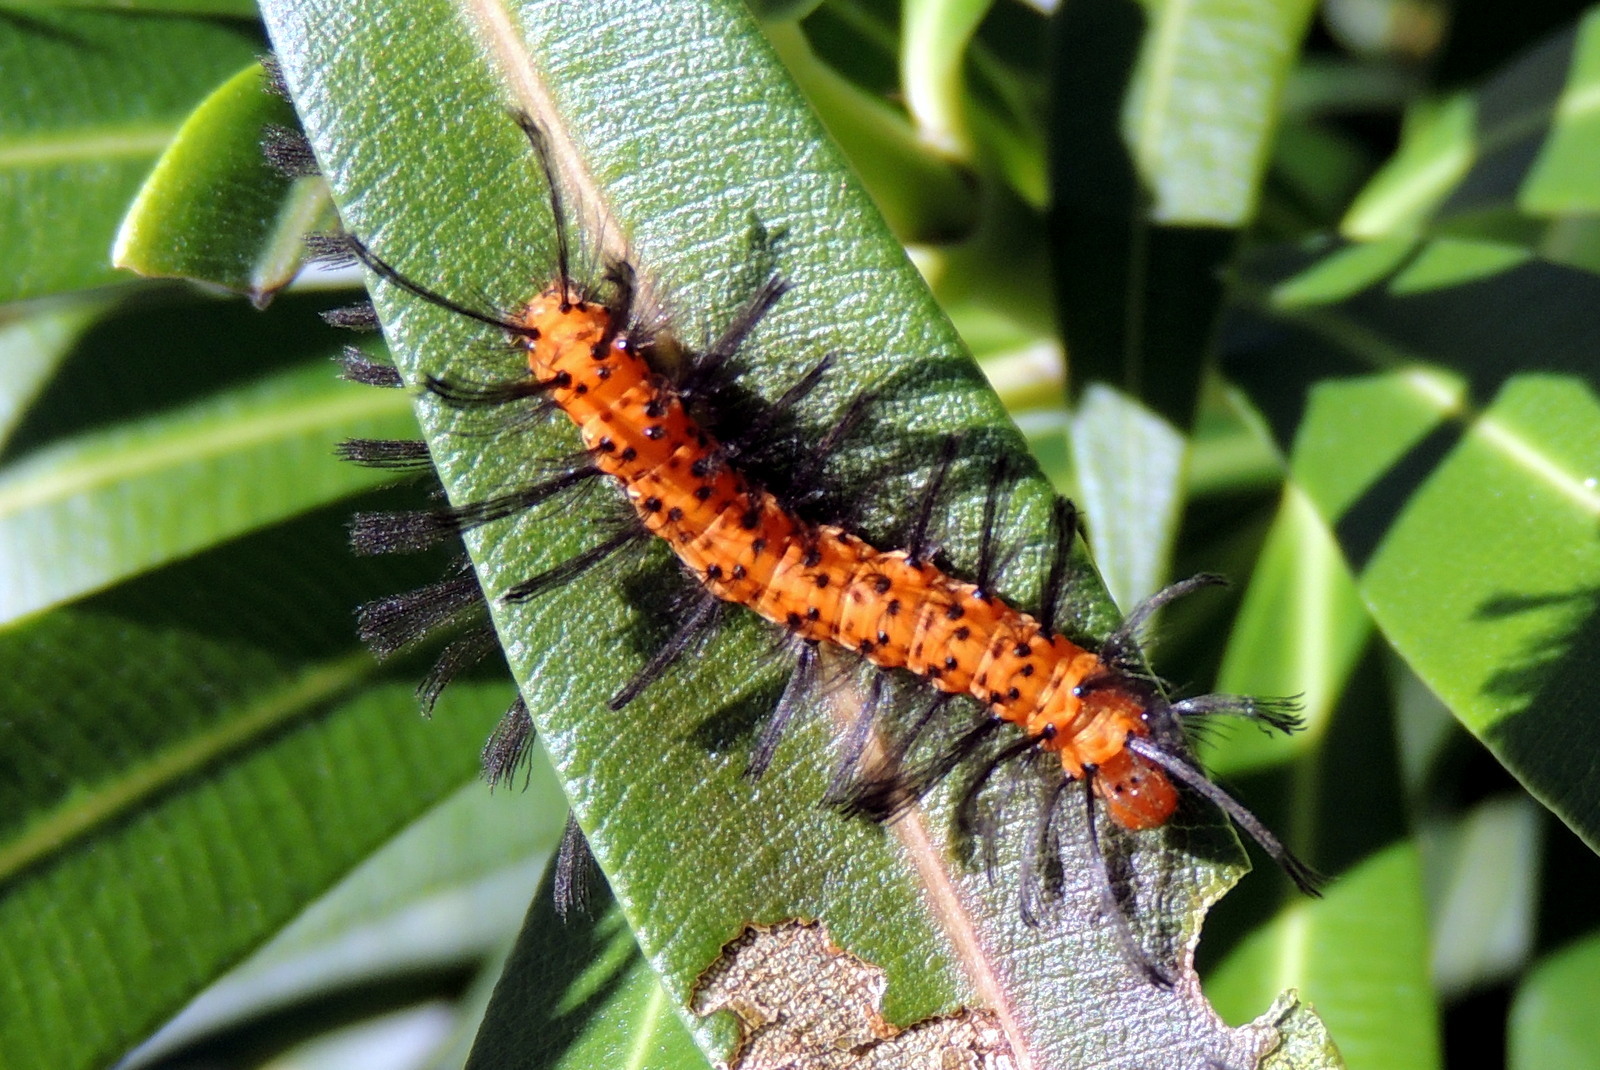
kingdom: Animalia
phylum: Arthropoda
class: Insecta
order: Lepidoptera
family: Erebidae
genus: Syntomeida
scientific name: Syntomeida epilais
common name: Polka-dot wasp moth
